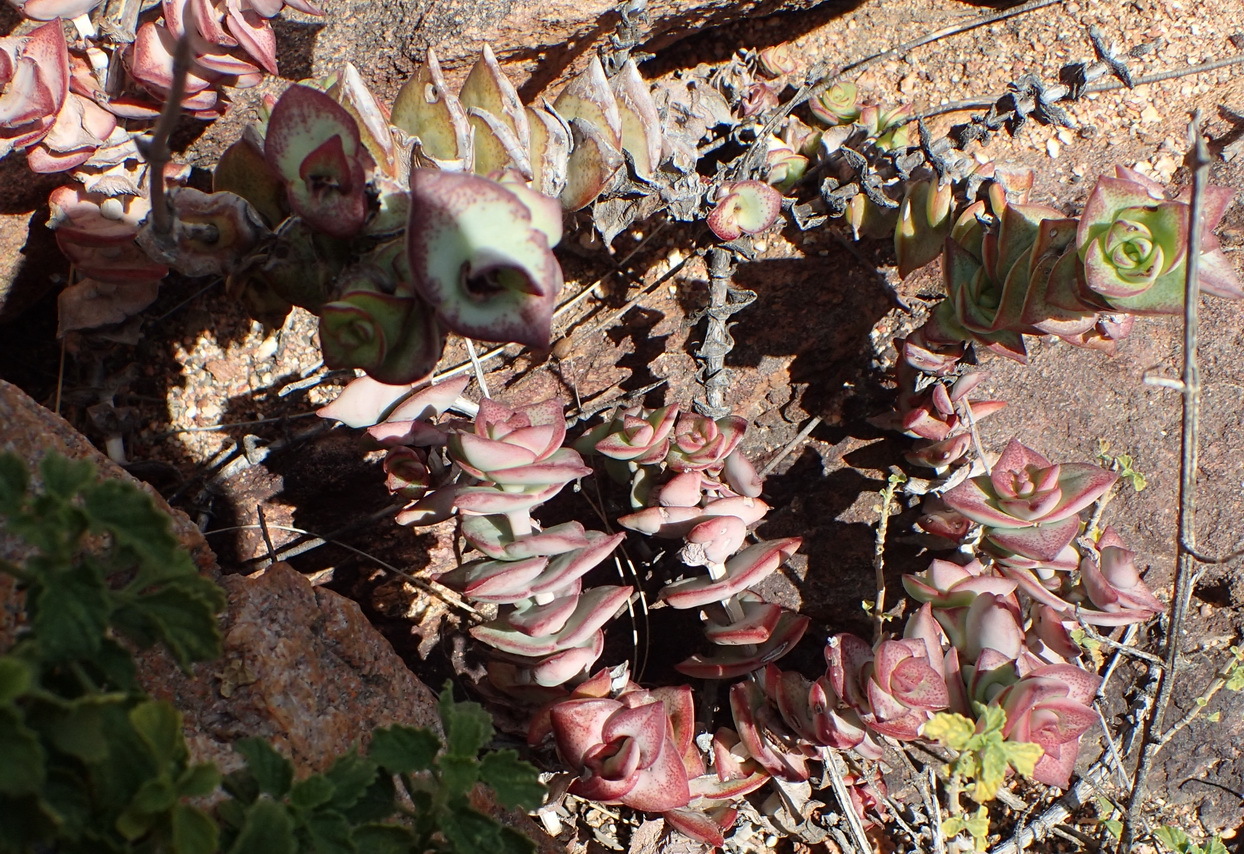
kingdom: Plantae
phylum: Tracheophyta
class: Magnoliopsida
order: Saxifragales
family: Crassulaceae
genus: Crassula
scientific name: Crassula perforata
